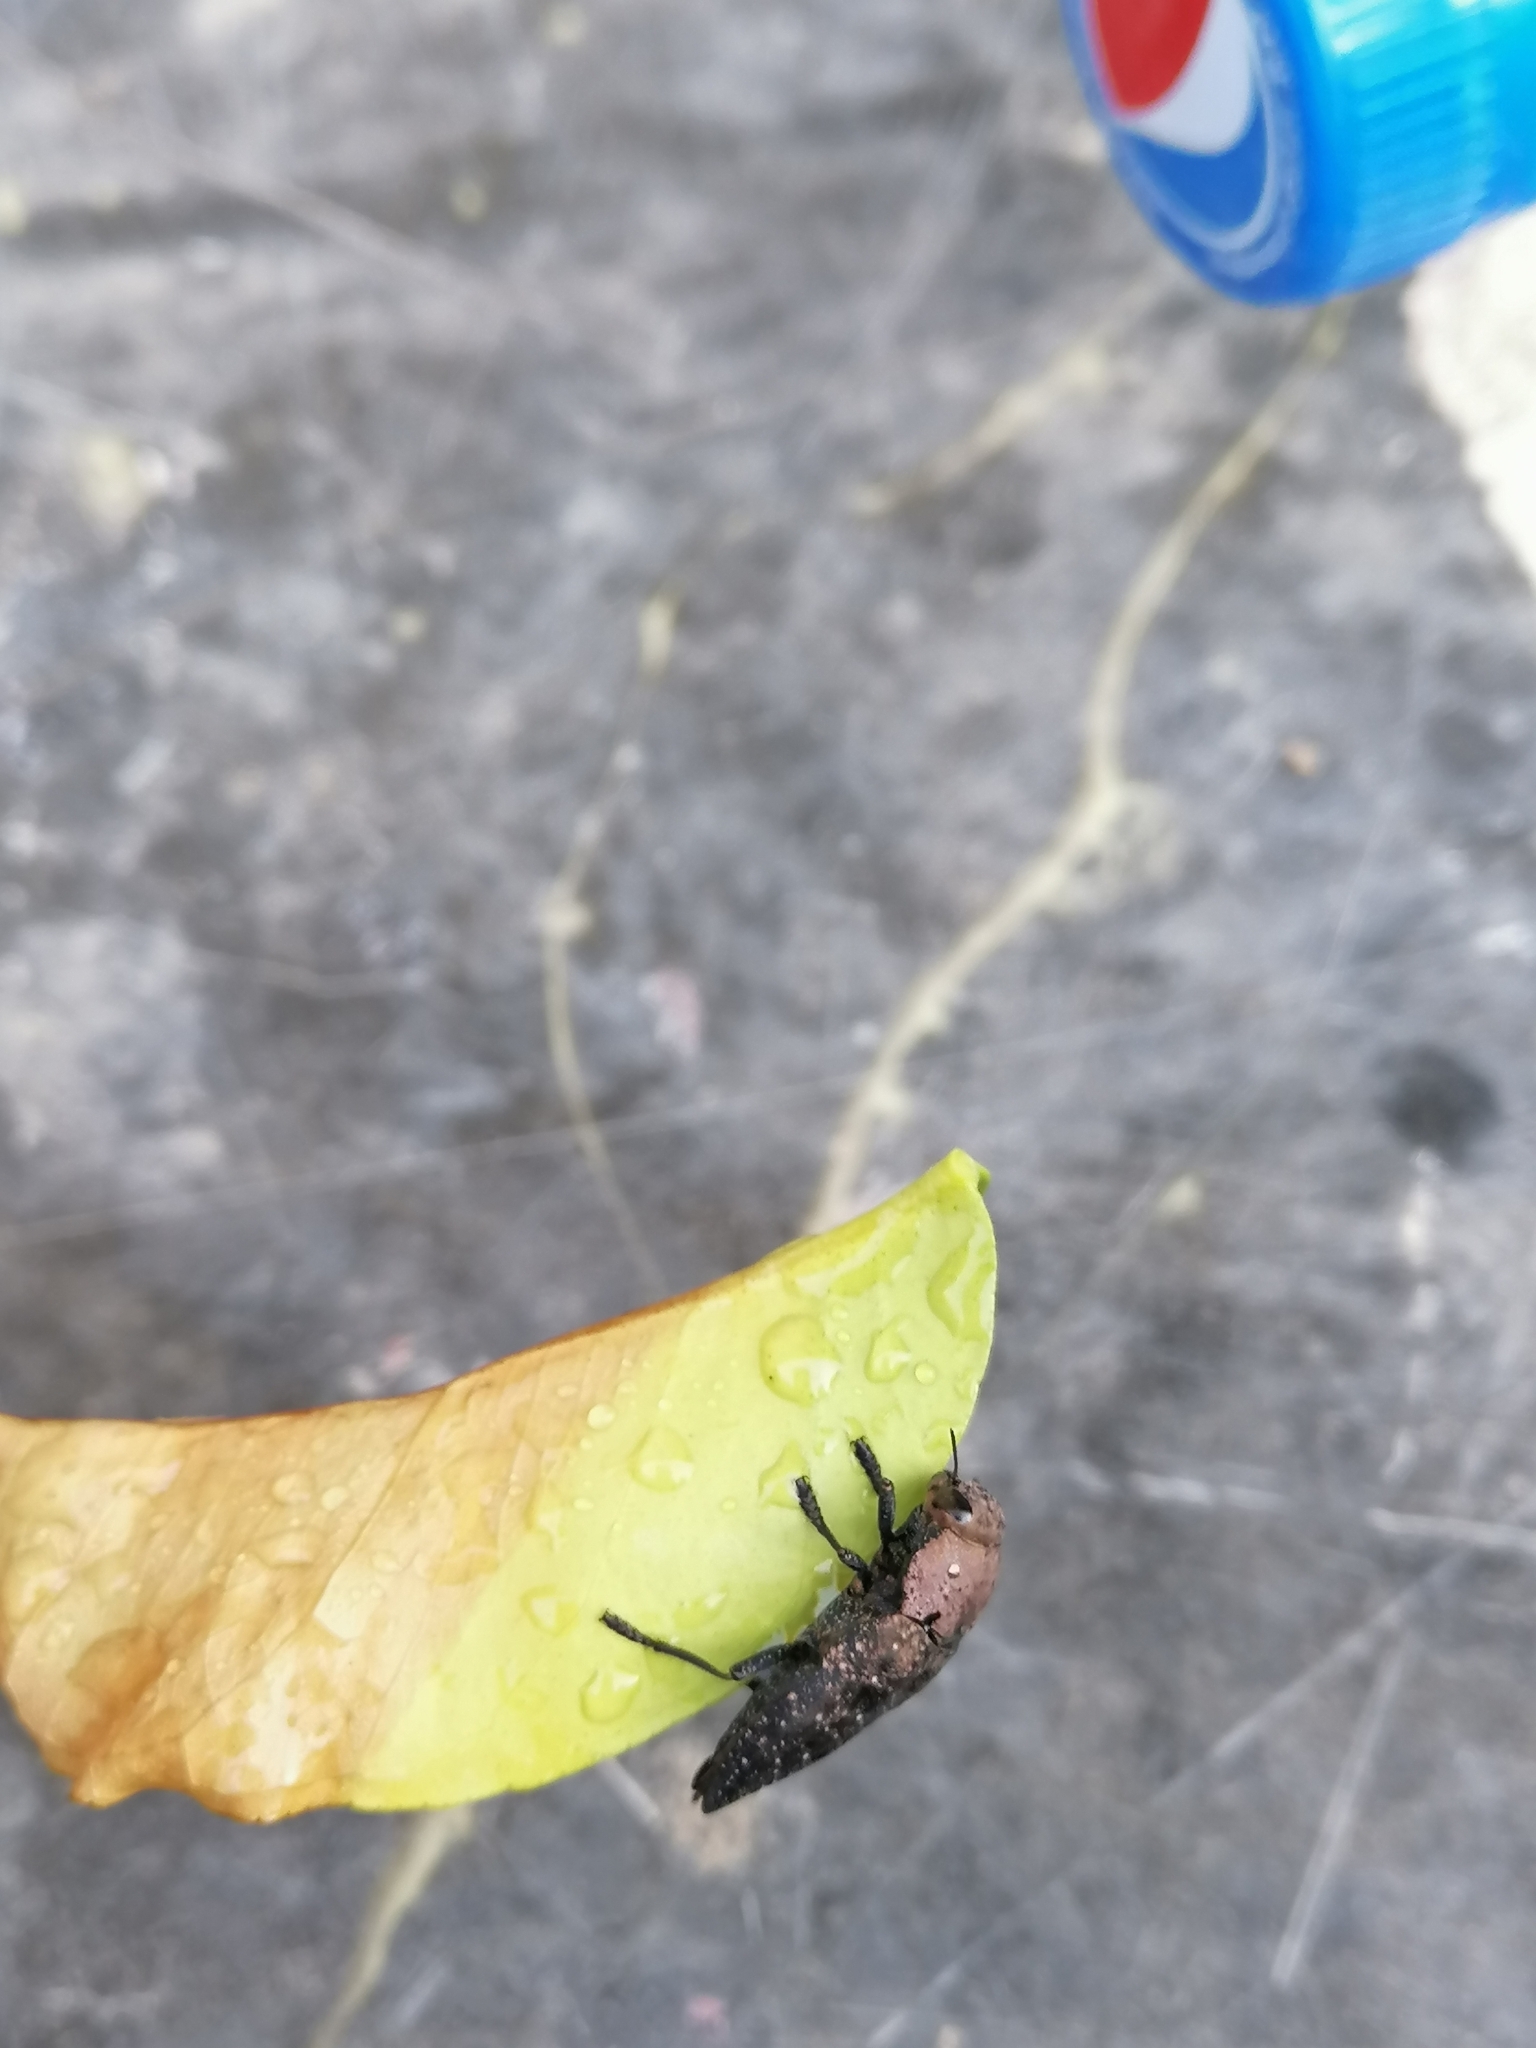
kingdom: Animalia
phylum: Arthropoda
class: Insecta
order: Coleoptera
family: Buprestidae
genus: Capnodis
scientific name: Capnodis tenebricosa
